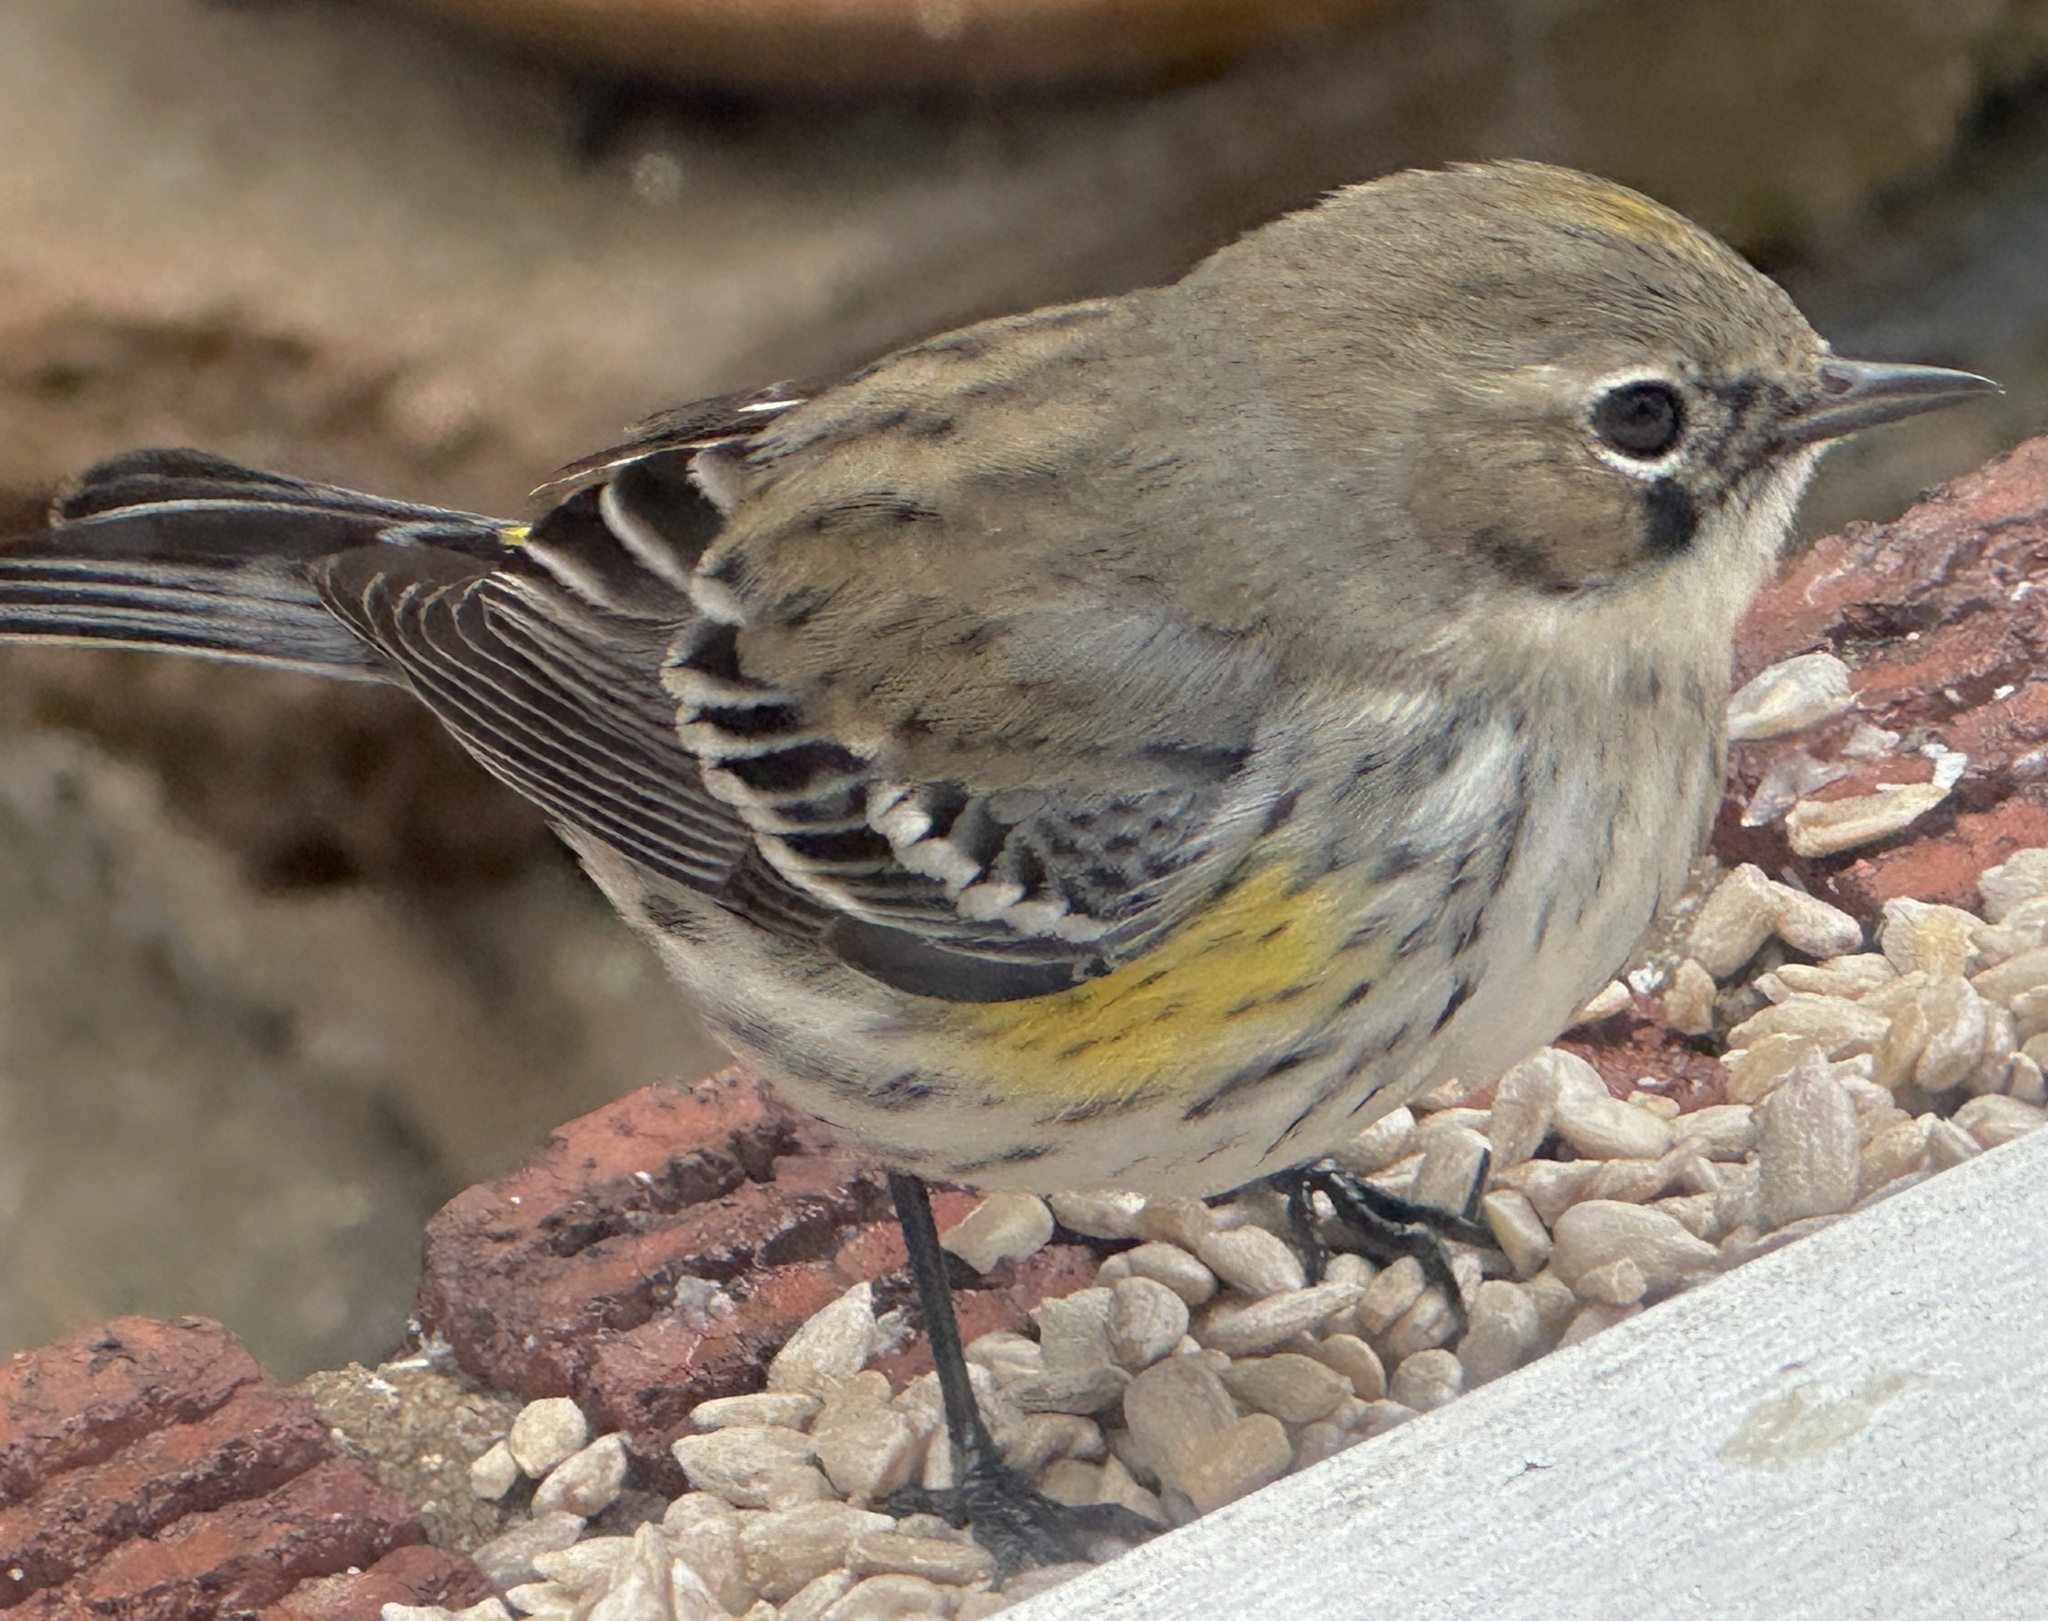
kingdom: Animalia
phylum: Chordata
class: Aves
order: Passeriformes
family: Parulidae
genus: Setophaga
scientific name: Setophaga coronata
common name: Myrtle warbler
